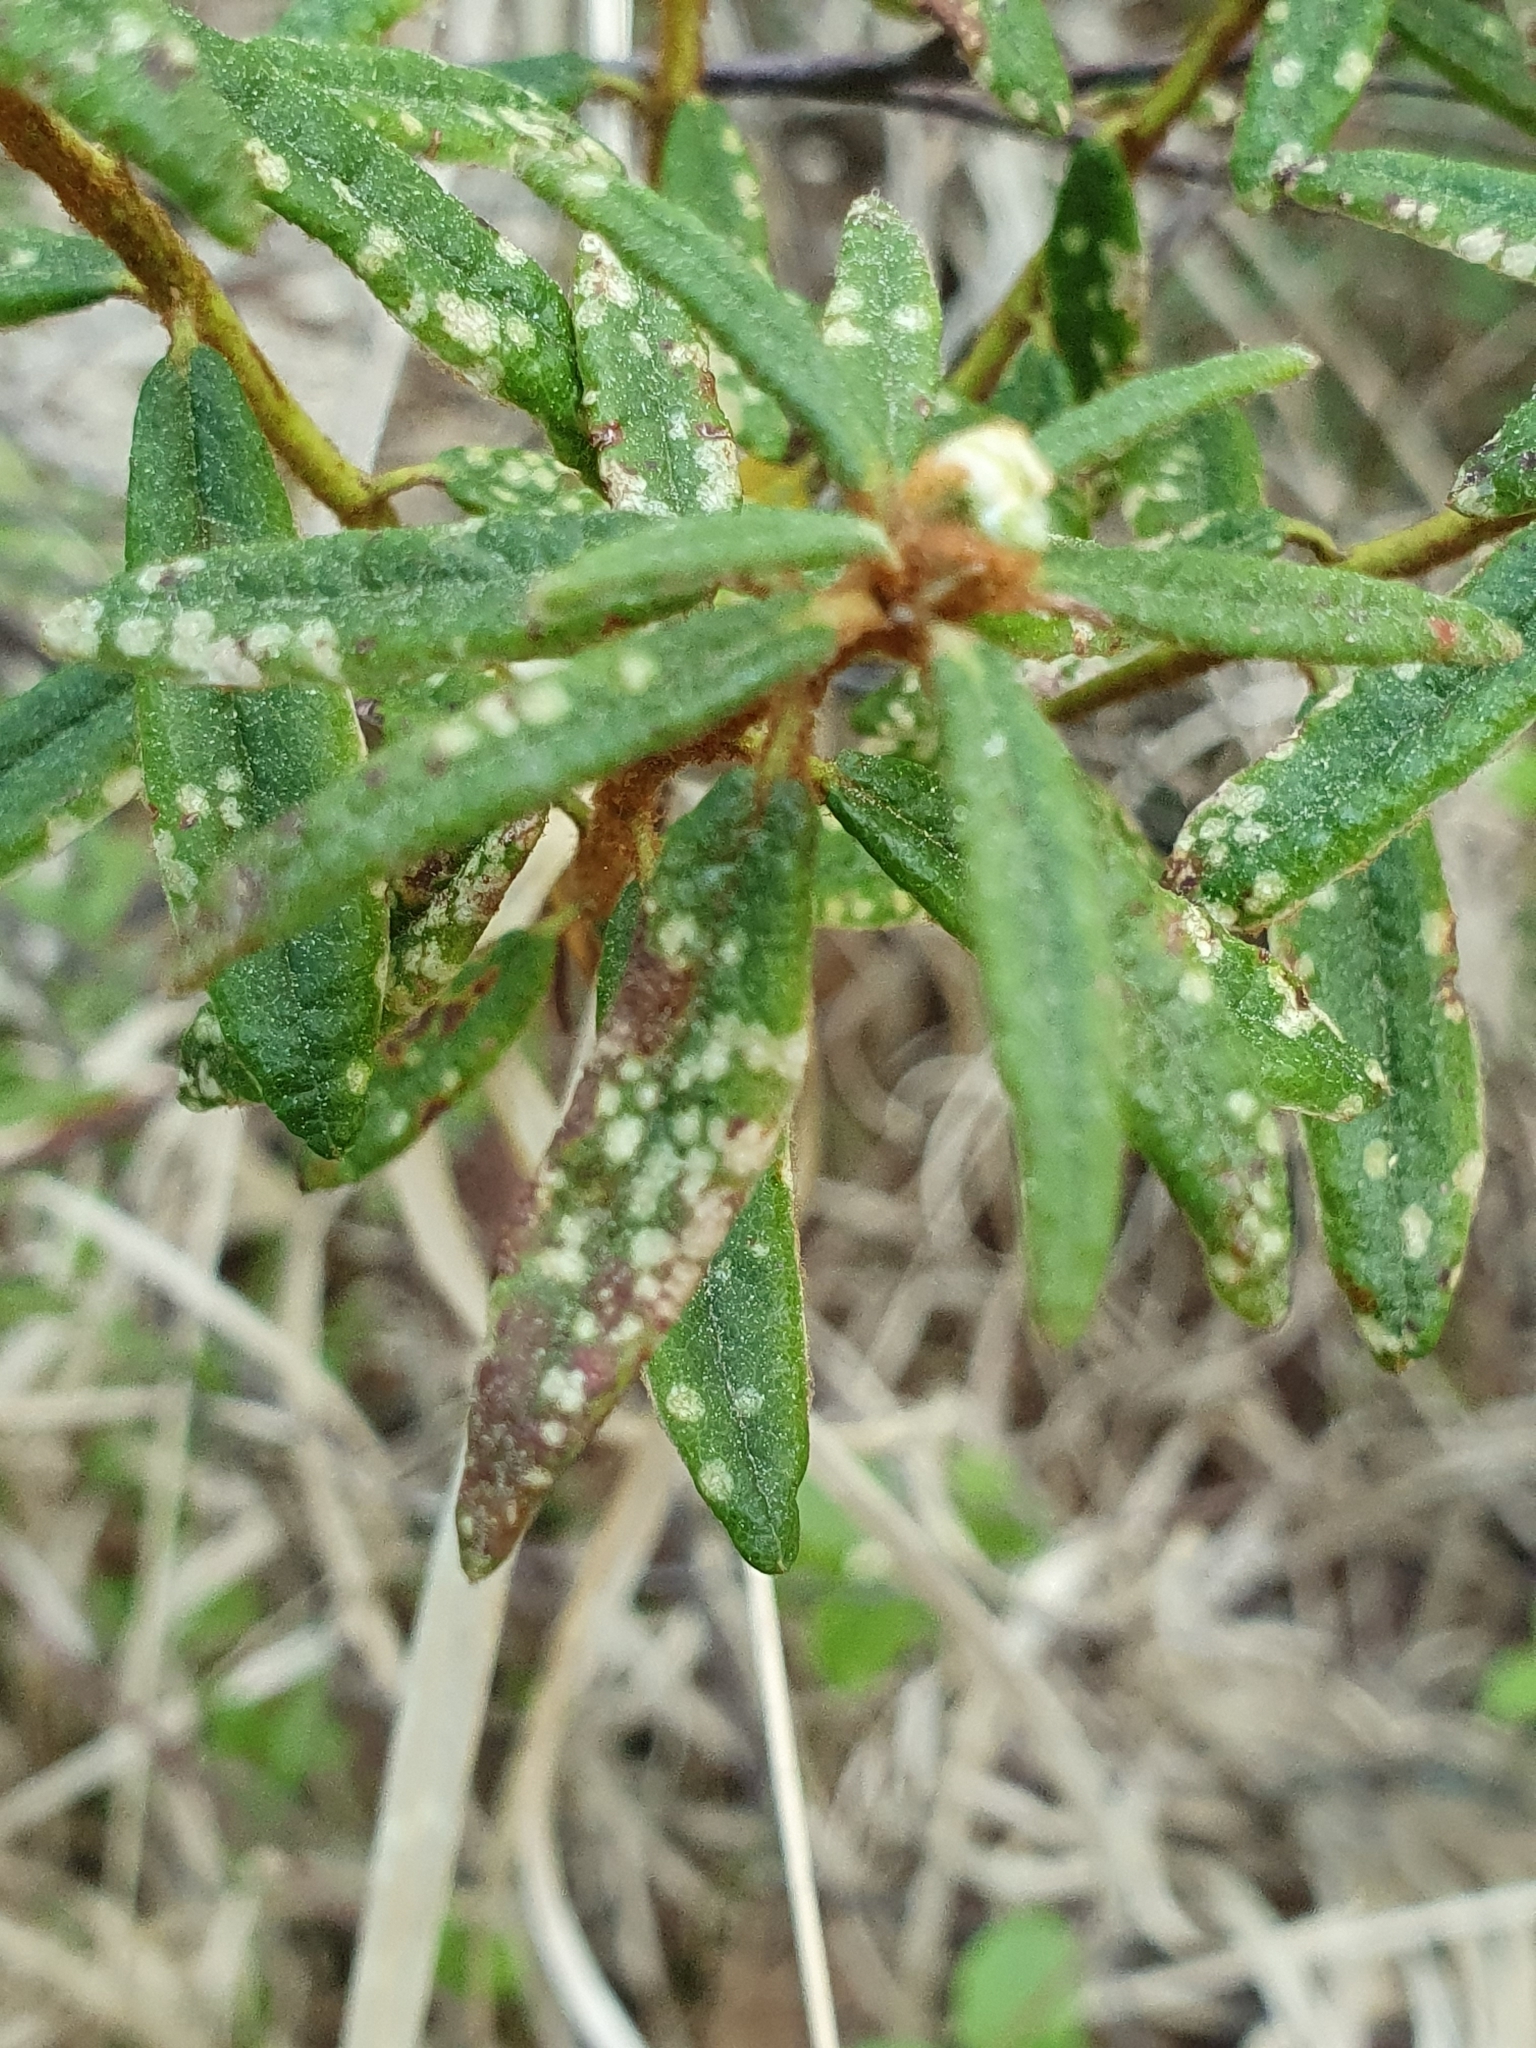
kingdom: Fungi
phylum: Basidiomycota
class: Exobasidiomycetes
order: Exobasidiales
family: Exobasidiaceae
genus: Exobasidium
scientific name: Exobasidium ledi
